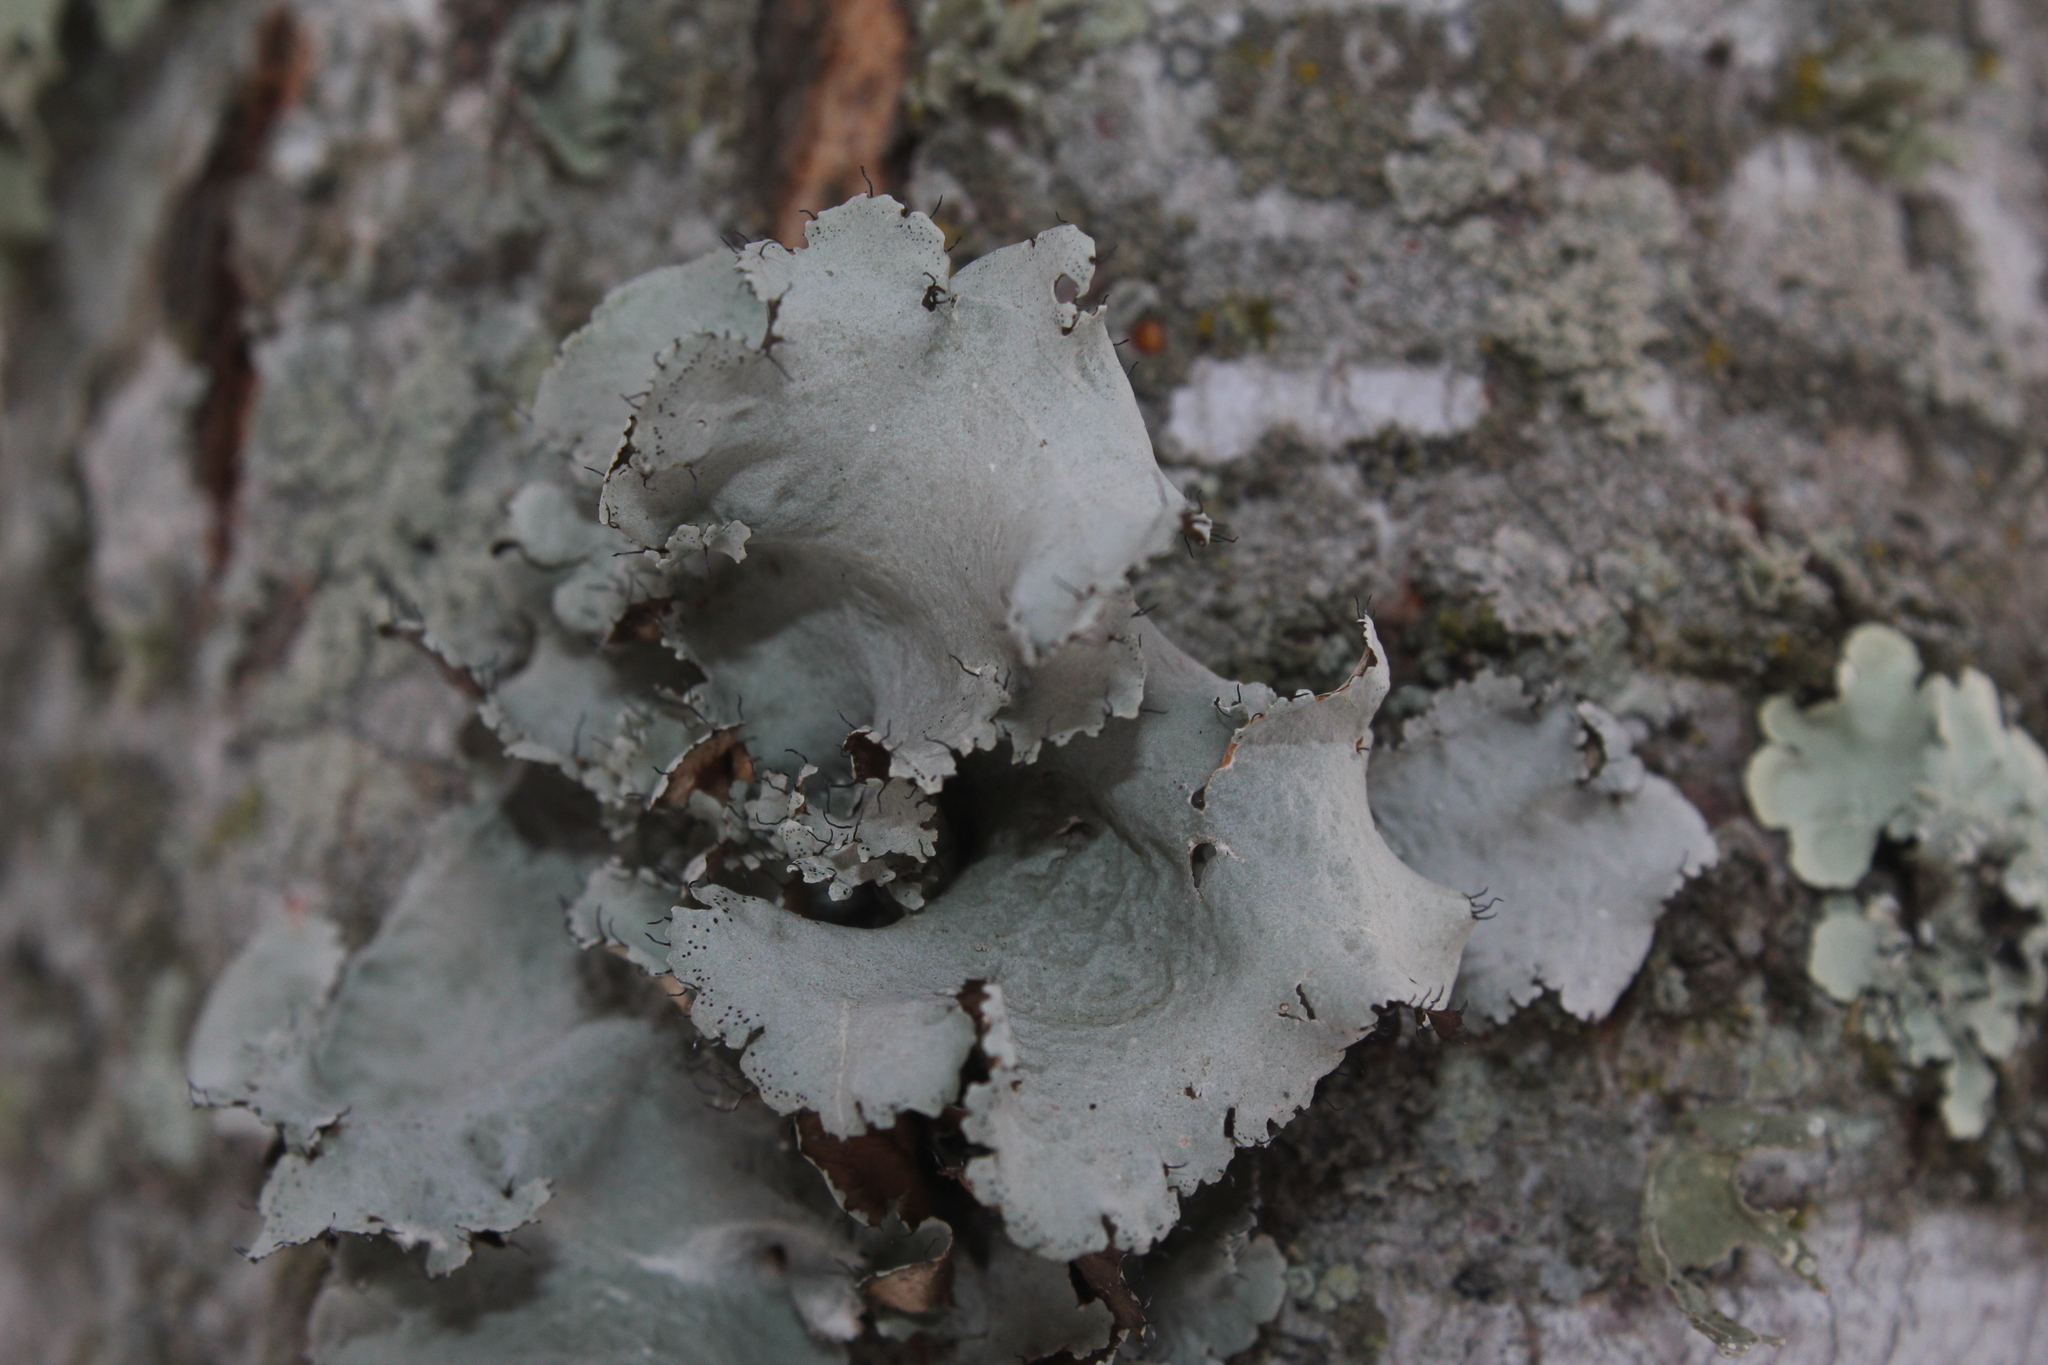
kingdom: Fungi
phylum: Ascomycota
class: Lecanoromycetes
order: Lecanorales
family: Parmeliaceae
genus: Parmotrema
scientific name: Parmotrema reticulatum
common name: Black sheet lichen
